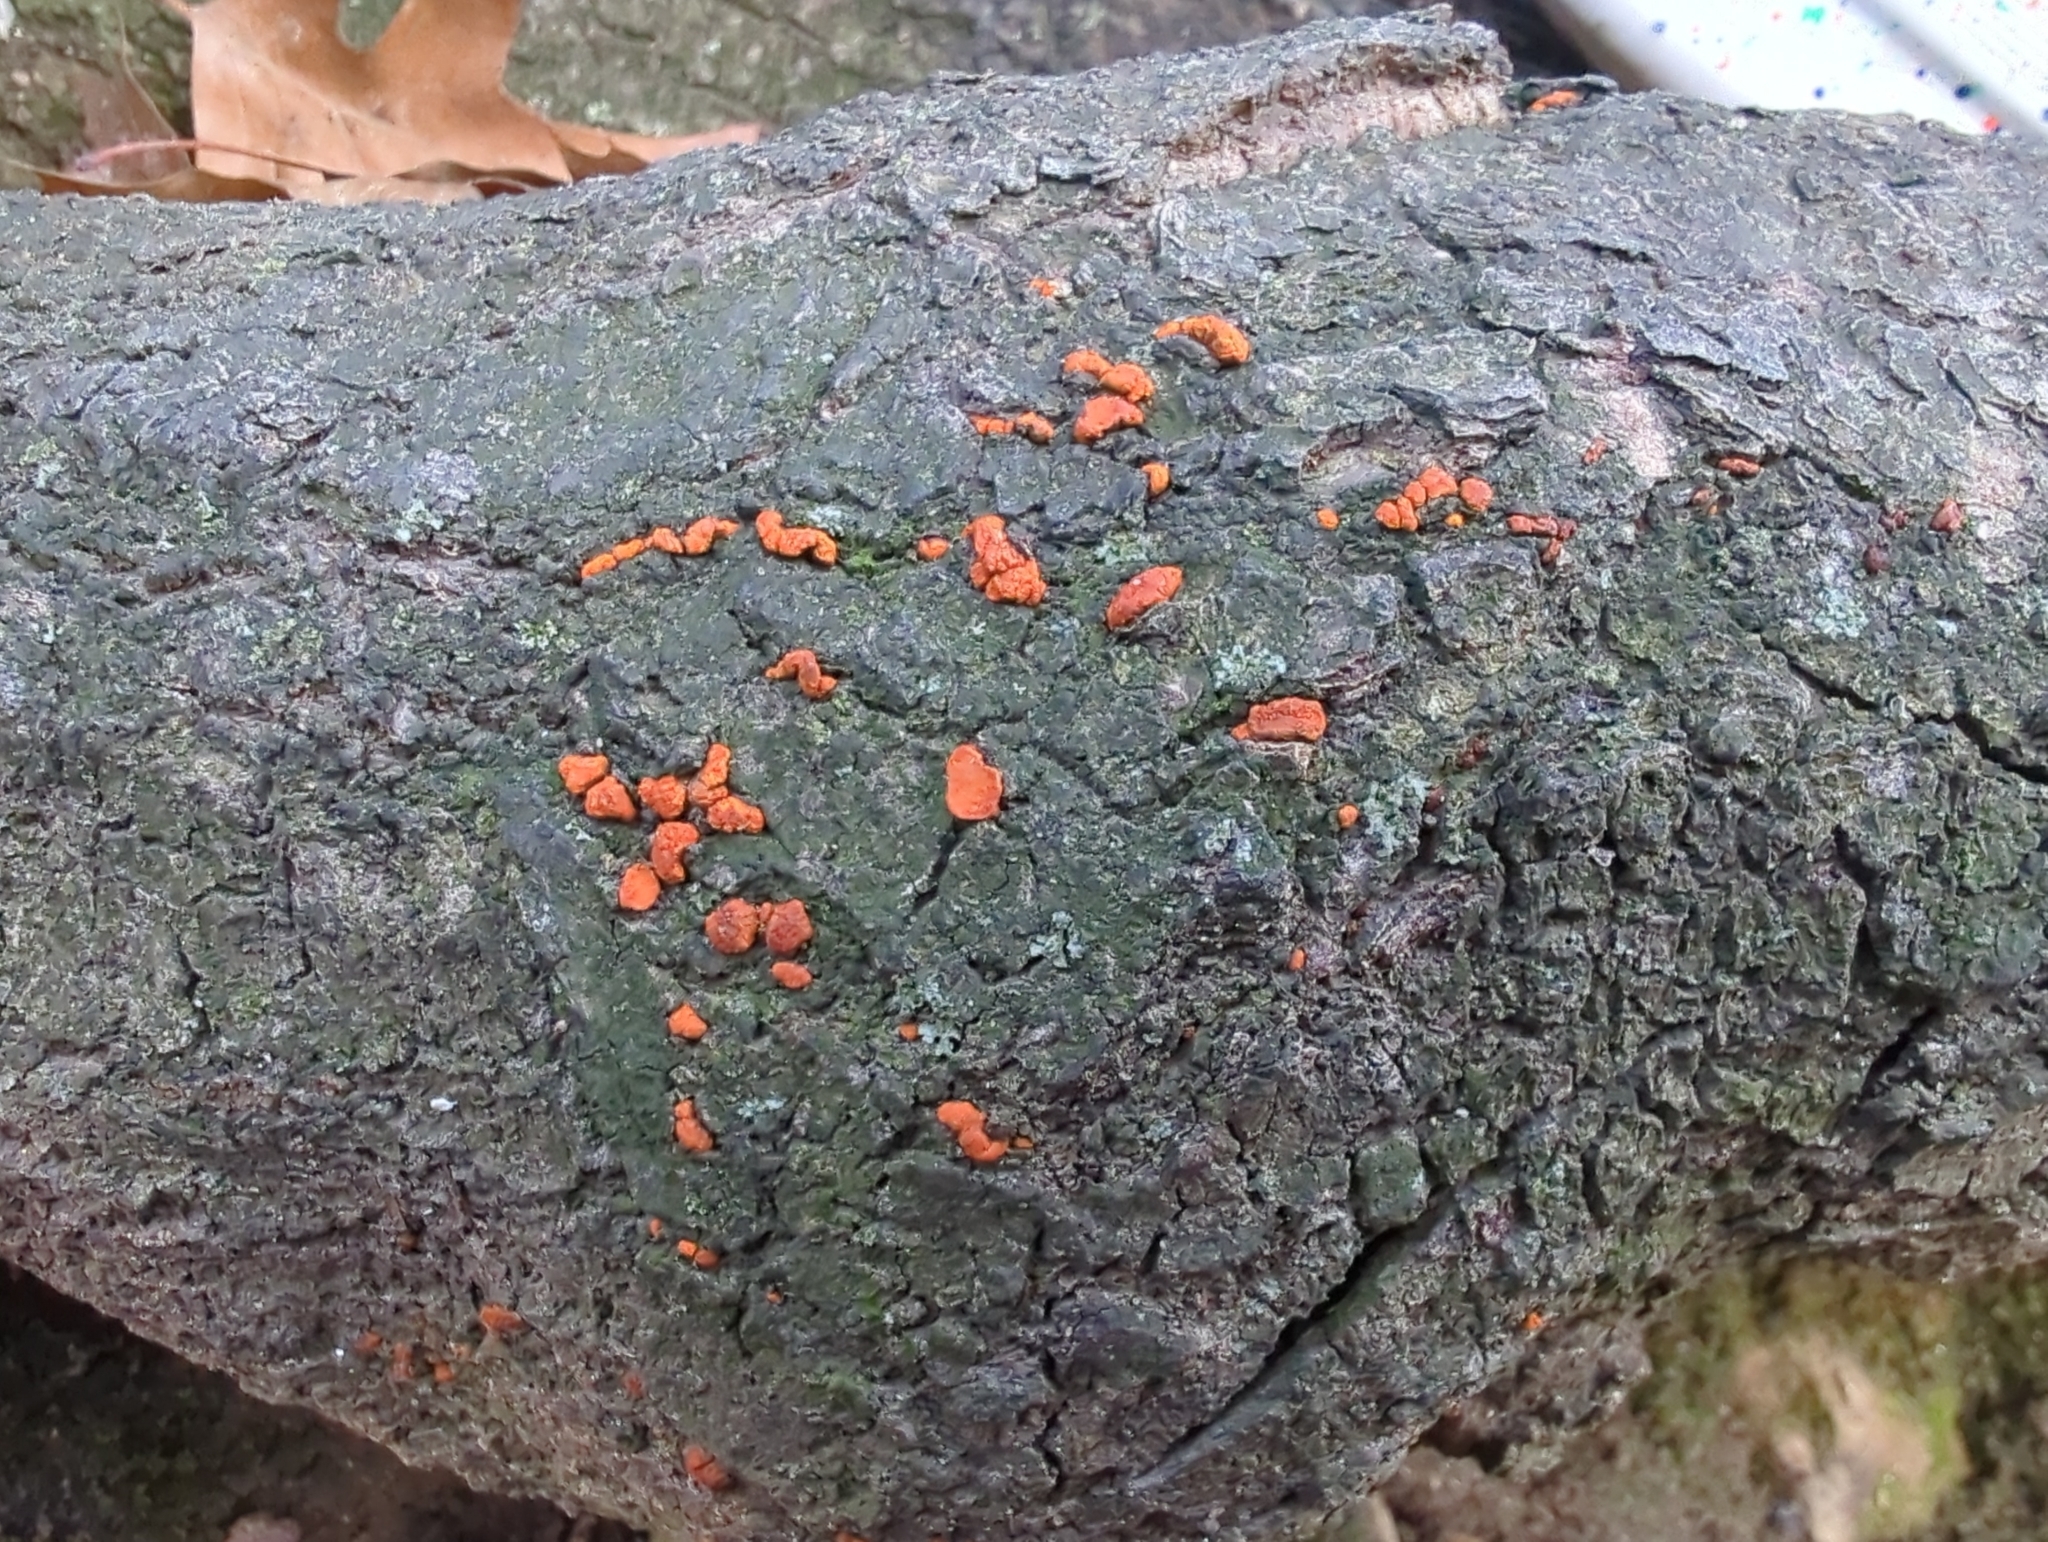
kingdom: Fungi
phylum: Ascomycota
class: Sordariomycetes
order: Diaporthales
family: Cryphonectriaceae
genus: Amphilogia
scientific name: Amphilogia gyrosa
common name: Orange hobnail canker
